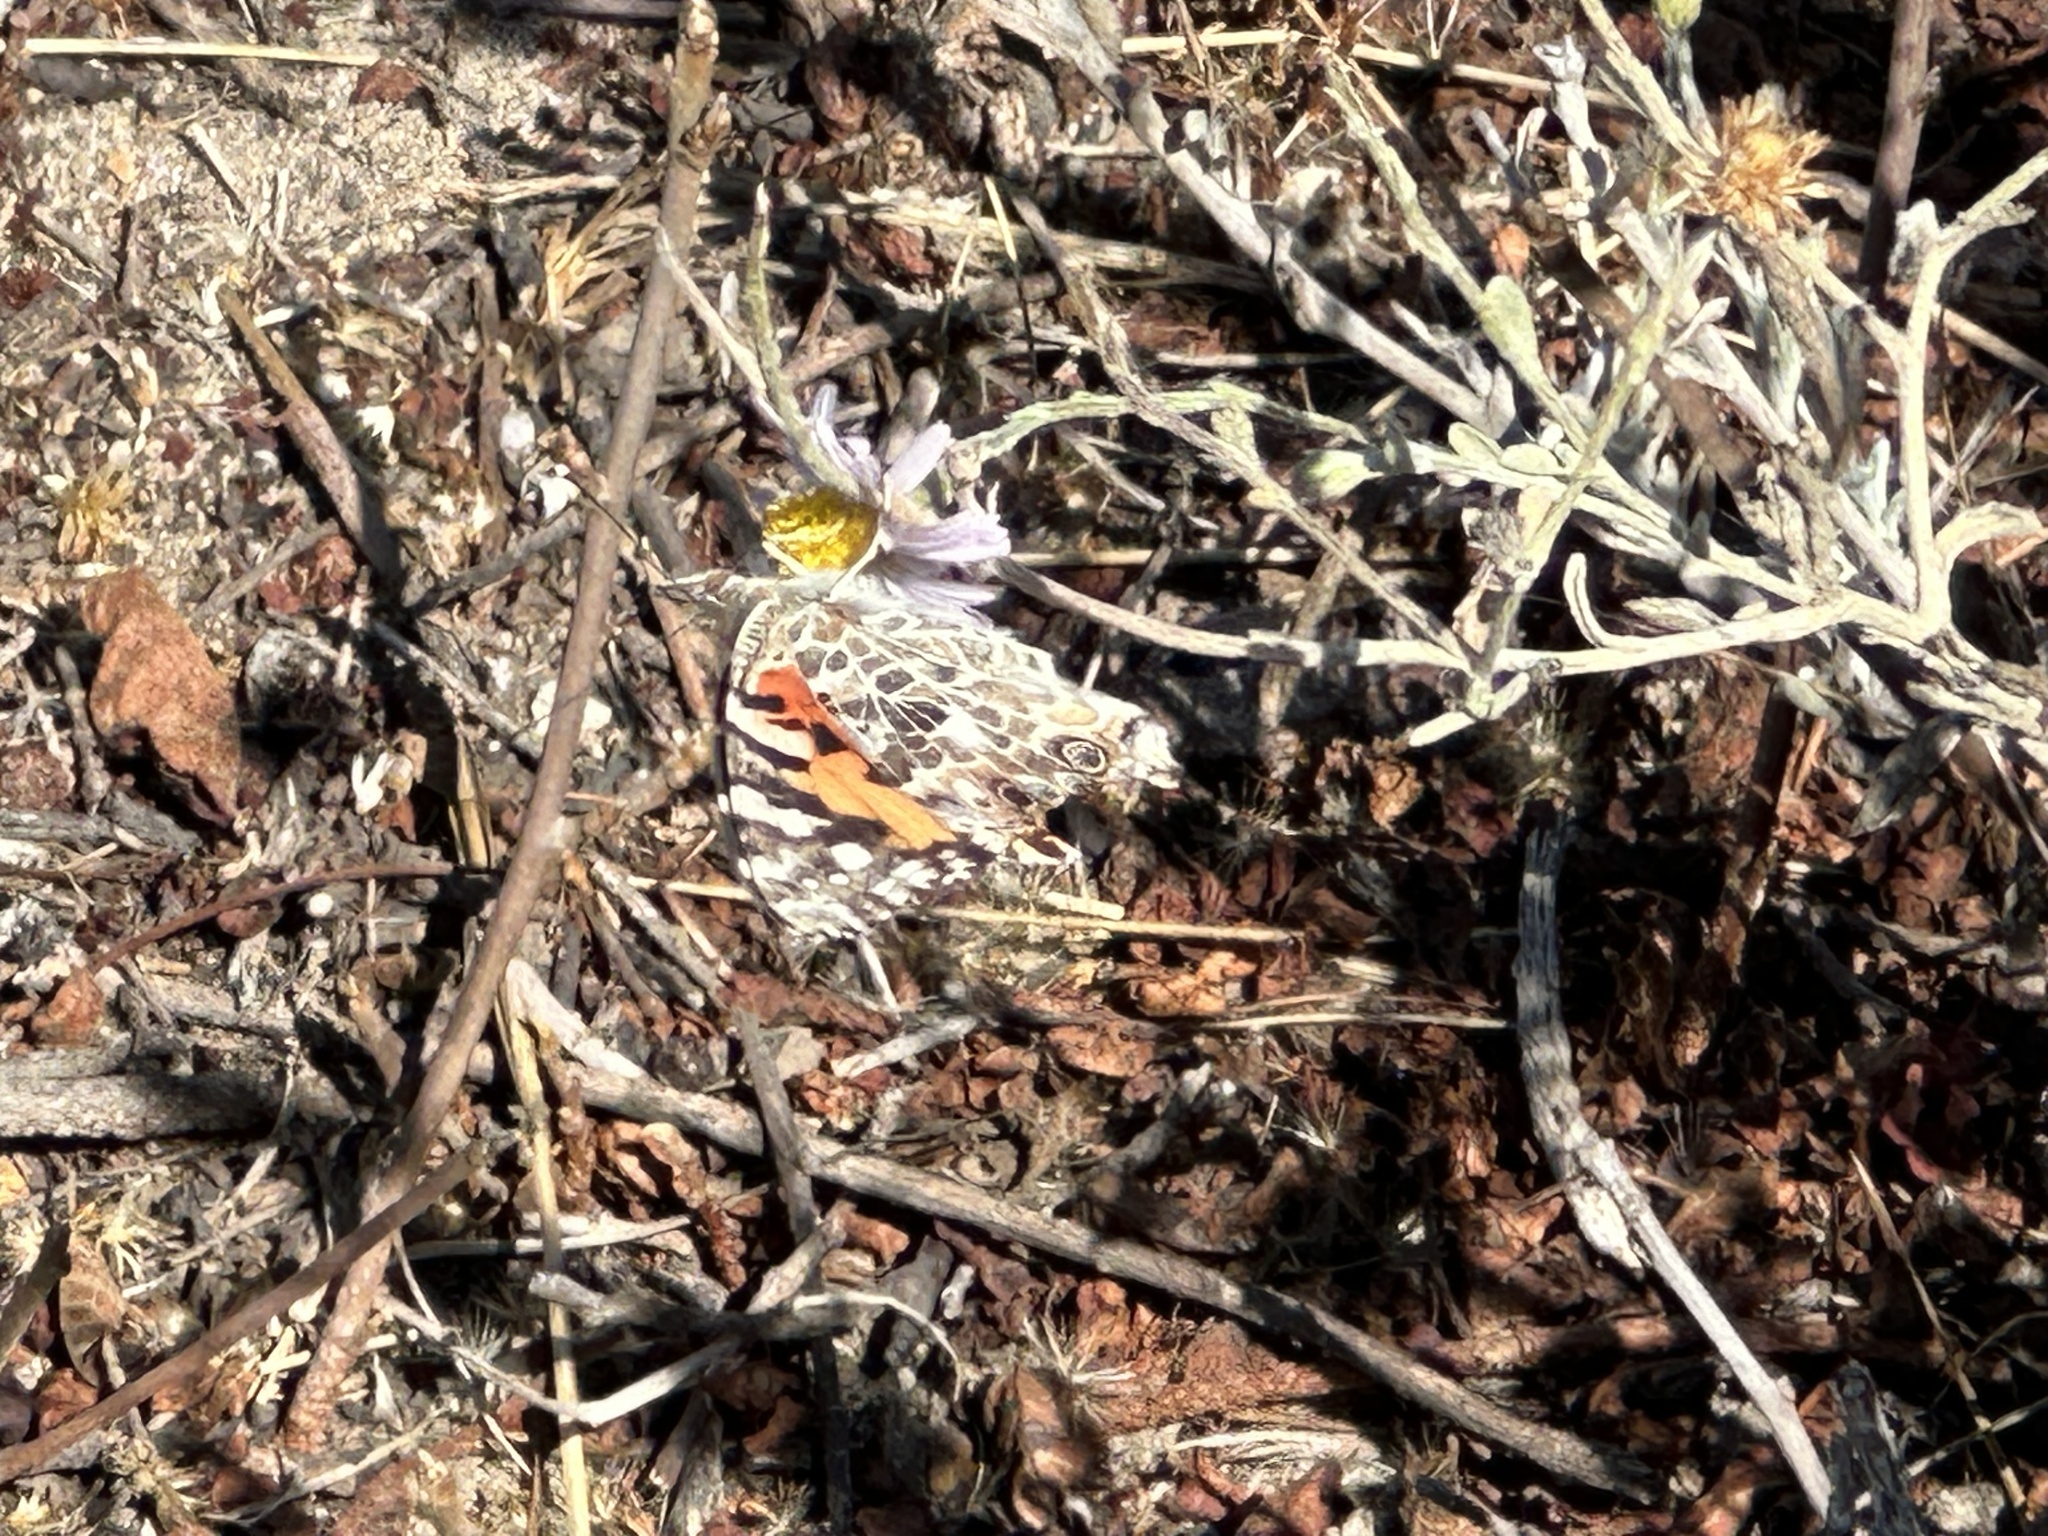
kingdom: Animalia
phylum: Arthropoda
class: Insecta
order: Lepidoptera
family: Nymphalidae
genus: Vanessa
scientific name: Vanessa cardui
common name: Painted lady
